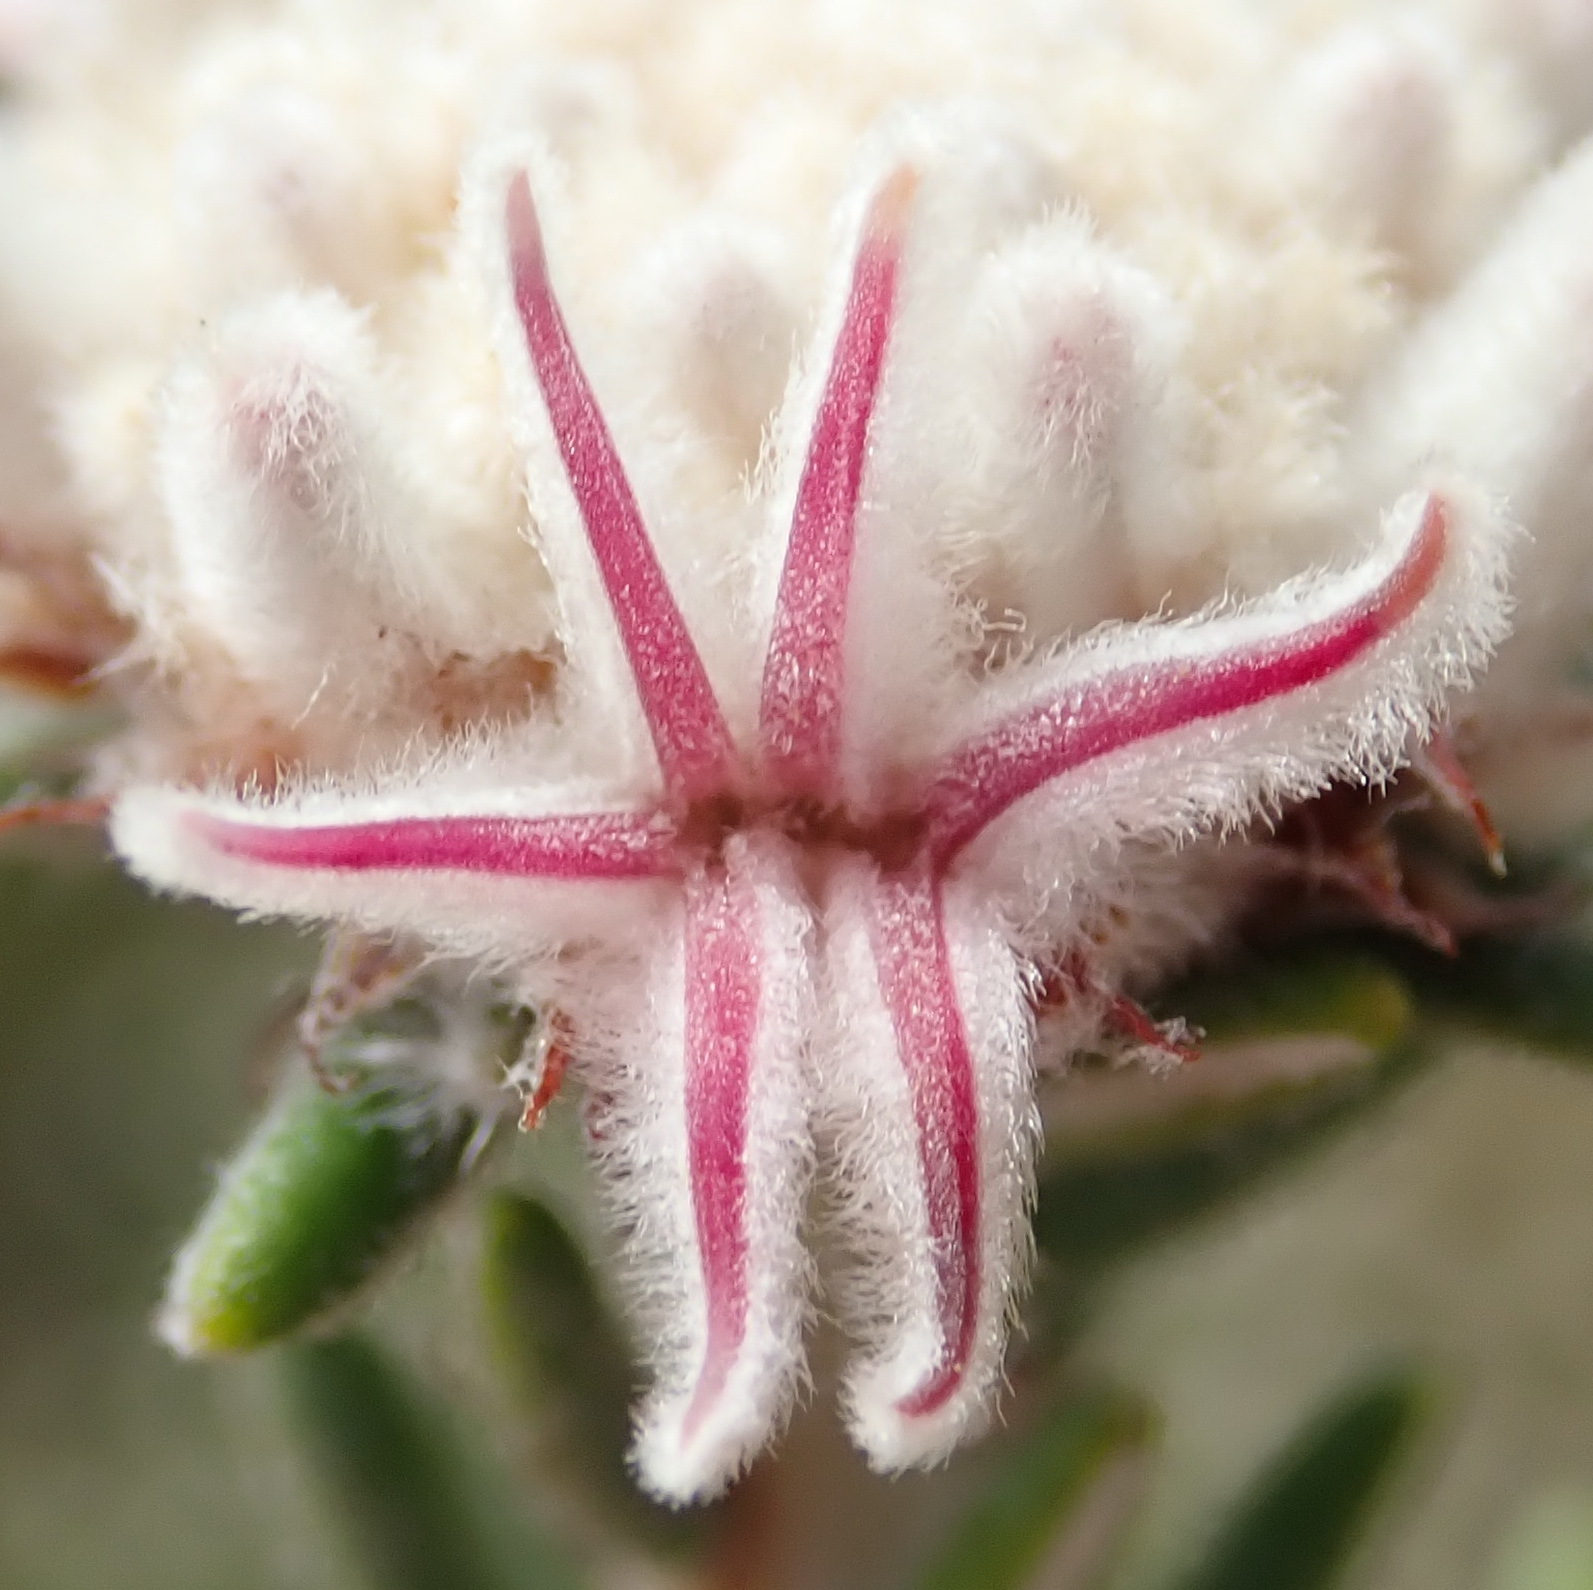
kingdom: Plantae
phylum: Tracheophyta
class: Magnoliopsida
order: Rosales
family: Rhamnaceae
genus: Trichocephalus
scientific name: Trichocephalus stipularis
